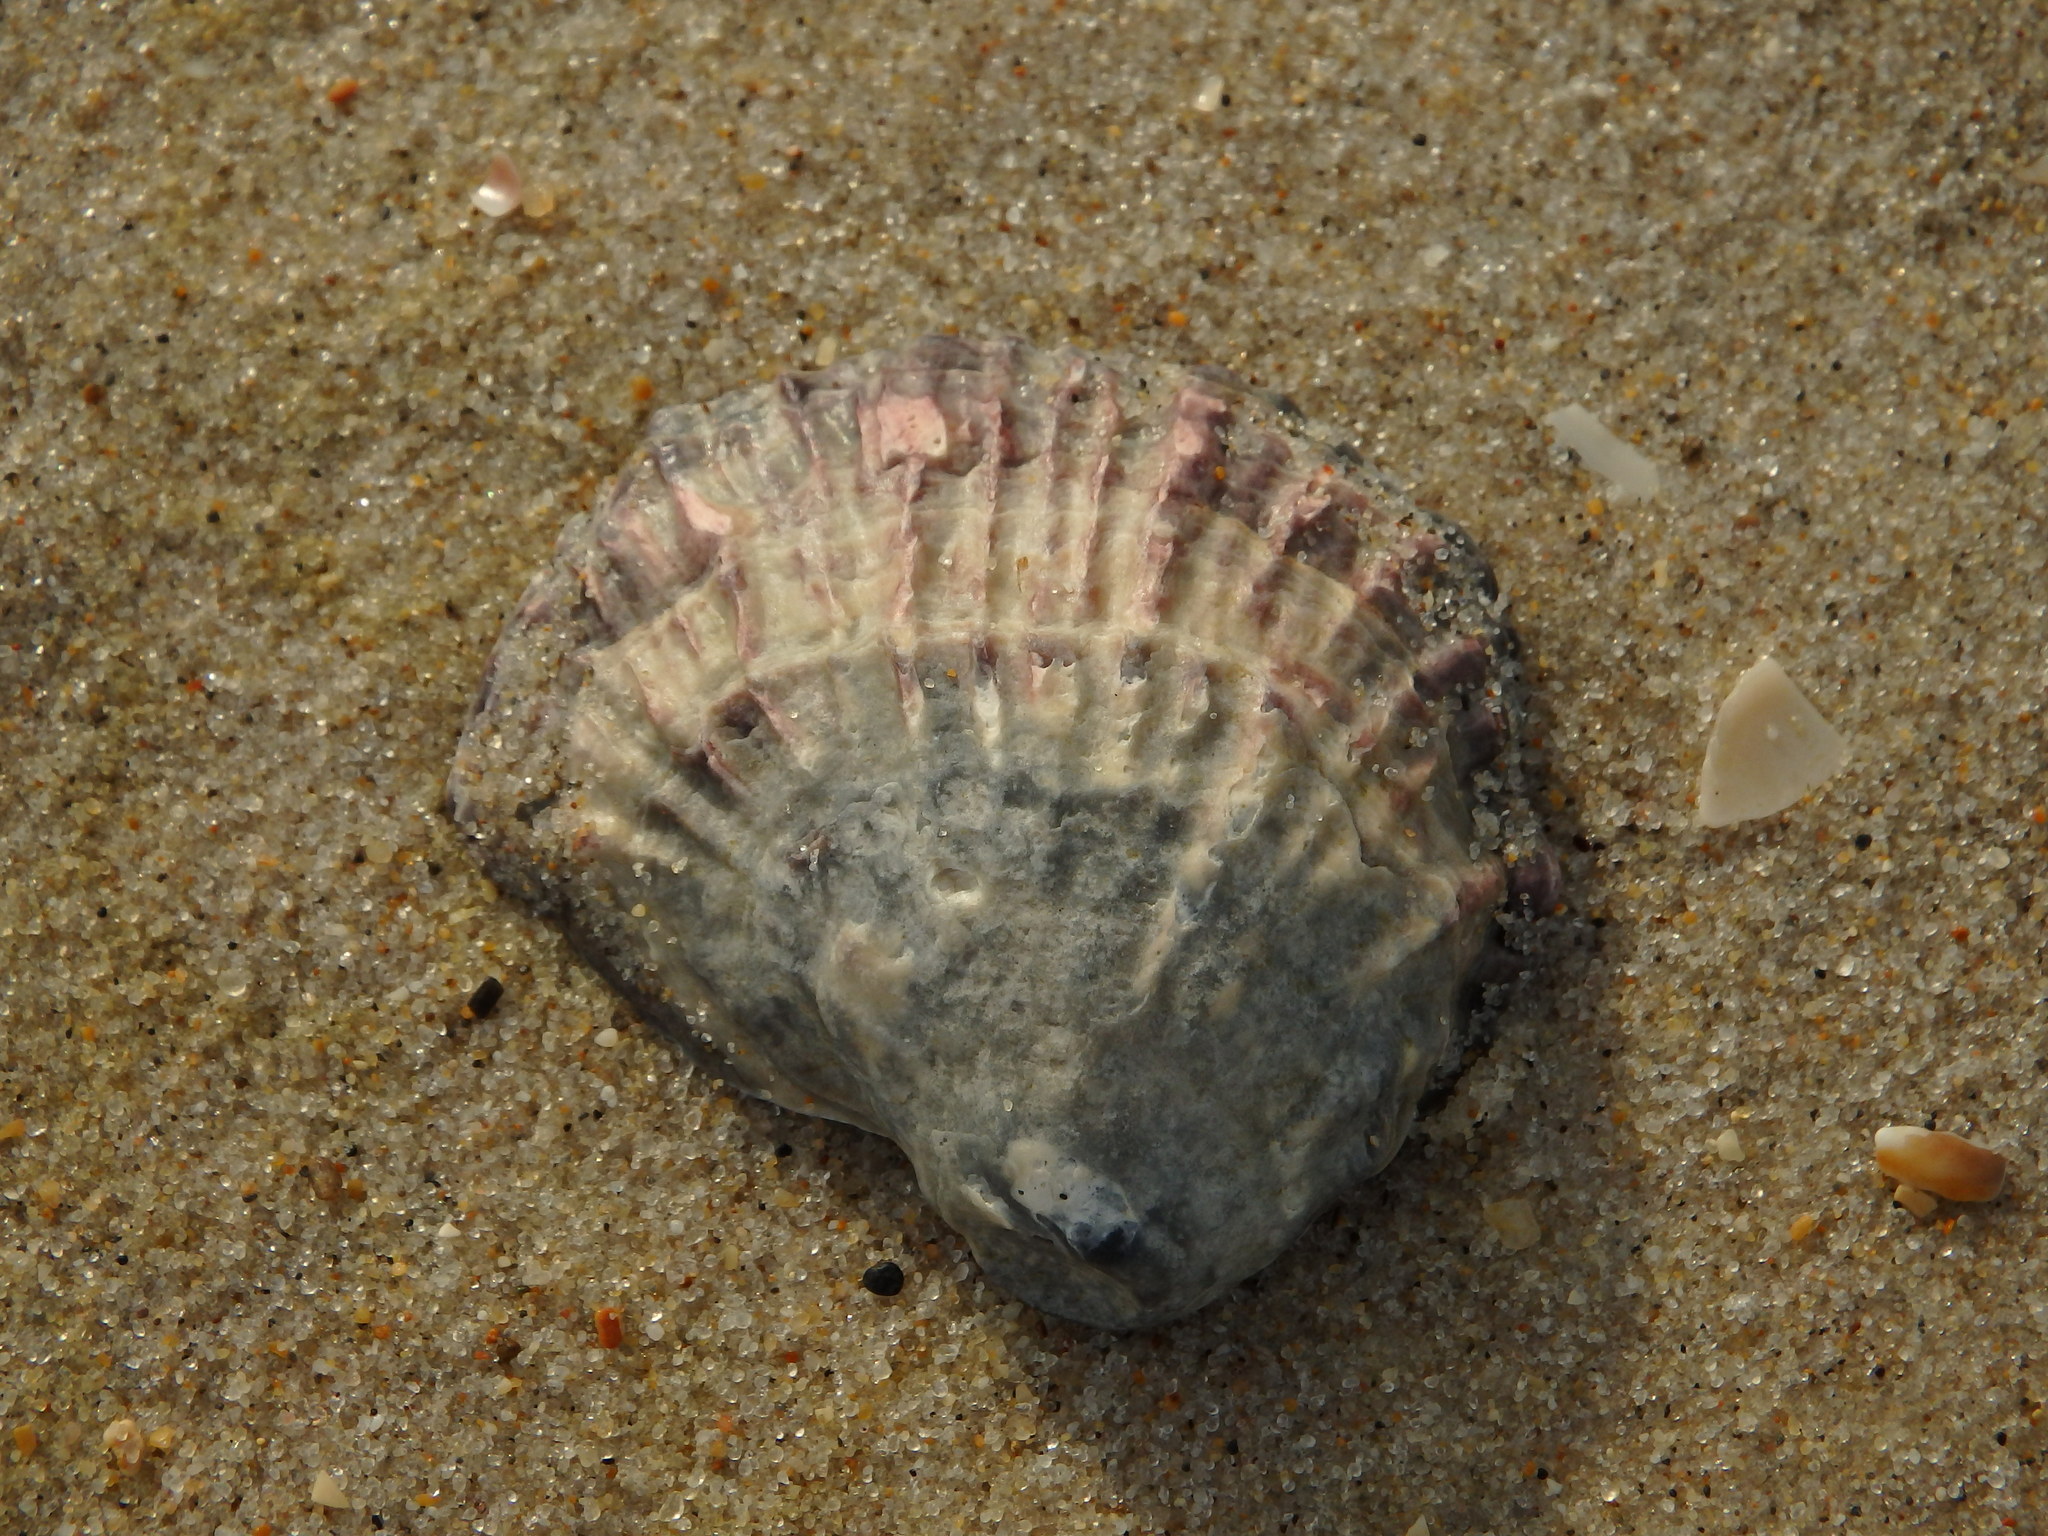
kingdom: Animalia
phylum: Mollusca
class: Bivalvia
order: Ostreida
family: Ostreidae
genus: Ostrea
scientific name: Ostrea edulis
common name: Flat oyster
